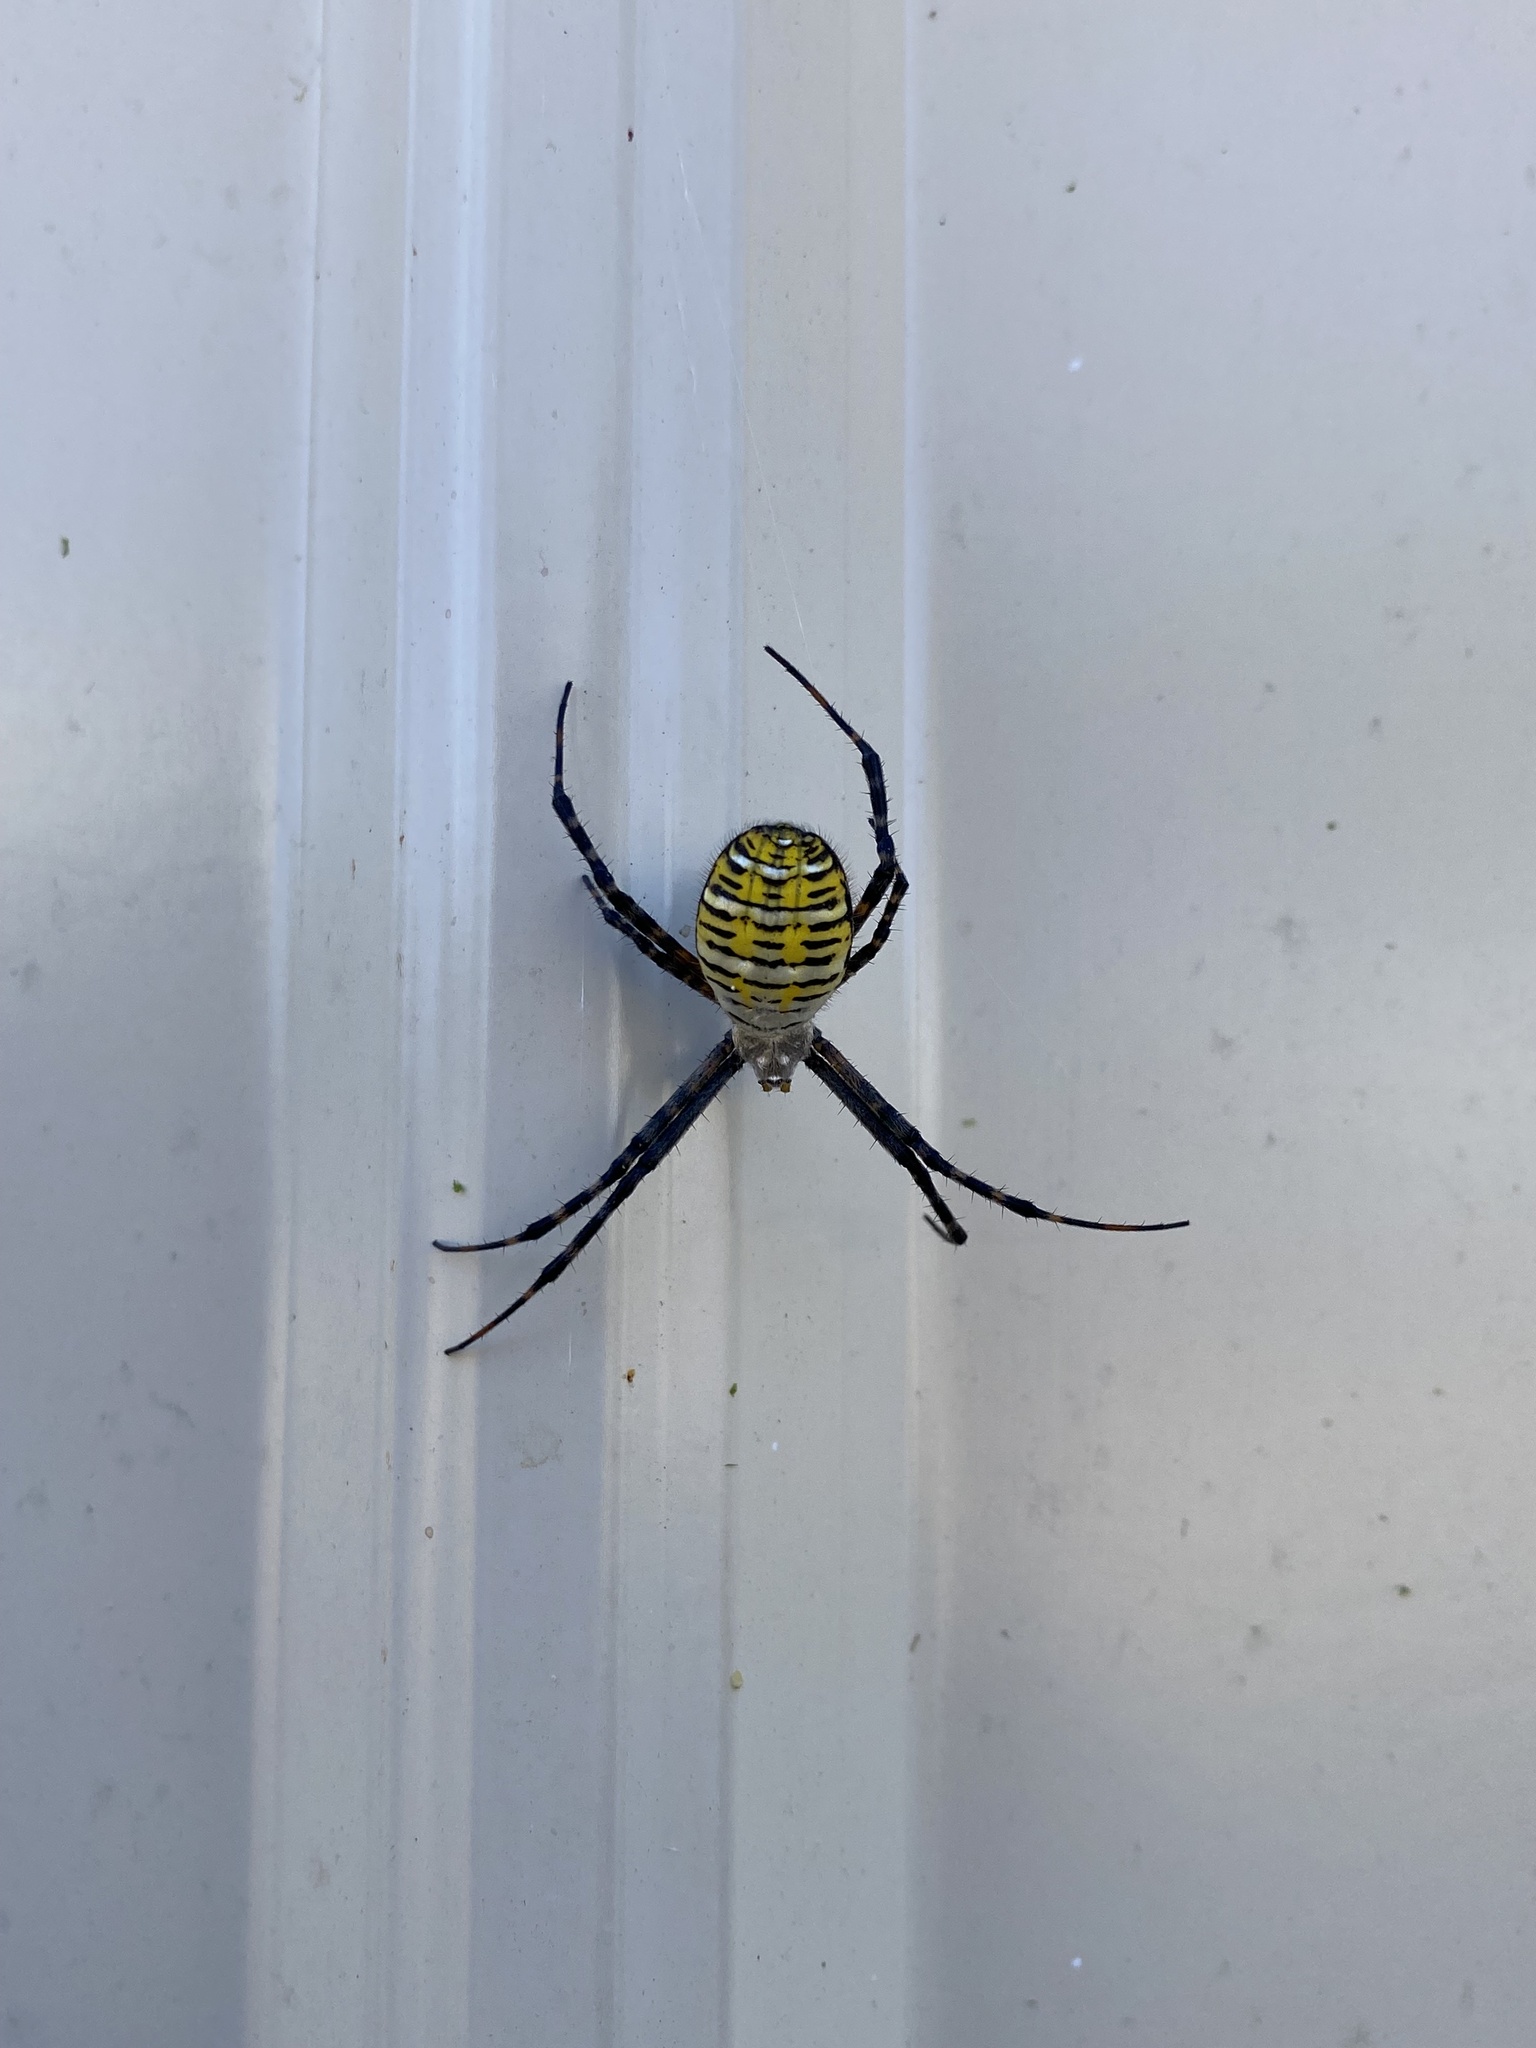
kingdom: Animalia
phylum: Arthropoda
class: Arachnida
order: Araneae
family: Araneidae
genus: Argiope
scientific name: Argiope trifasciata
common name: Banded garden spider
